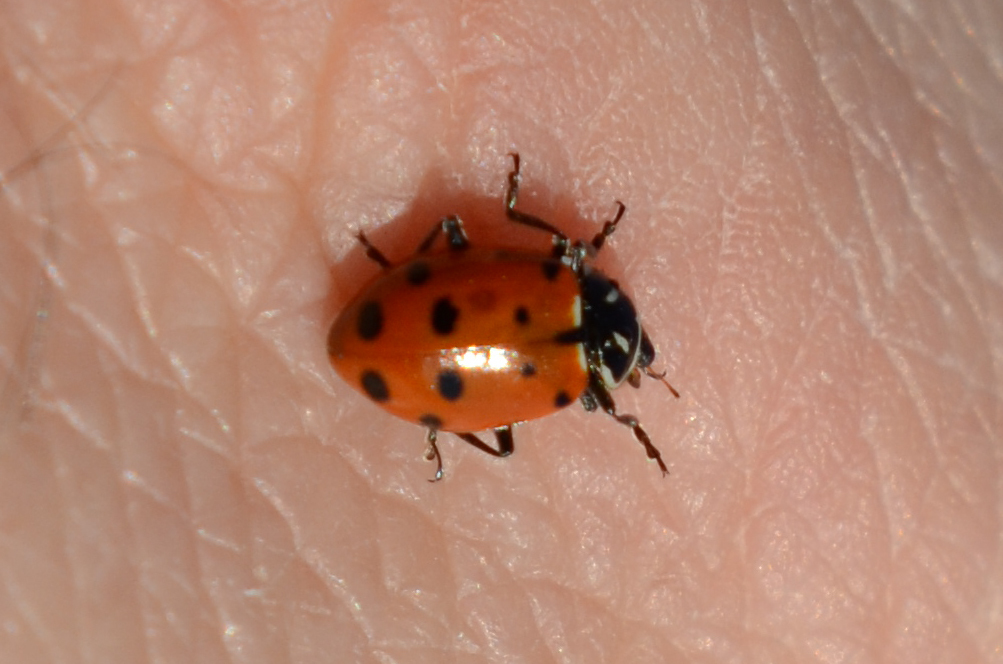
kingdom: Animalia
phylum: Arthropoda
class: Insecta
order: Coleoptera
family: Coccinellidae
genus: Hippodamia
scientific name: Hippodamia convergens
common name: Convergent lady beetle
